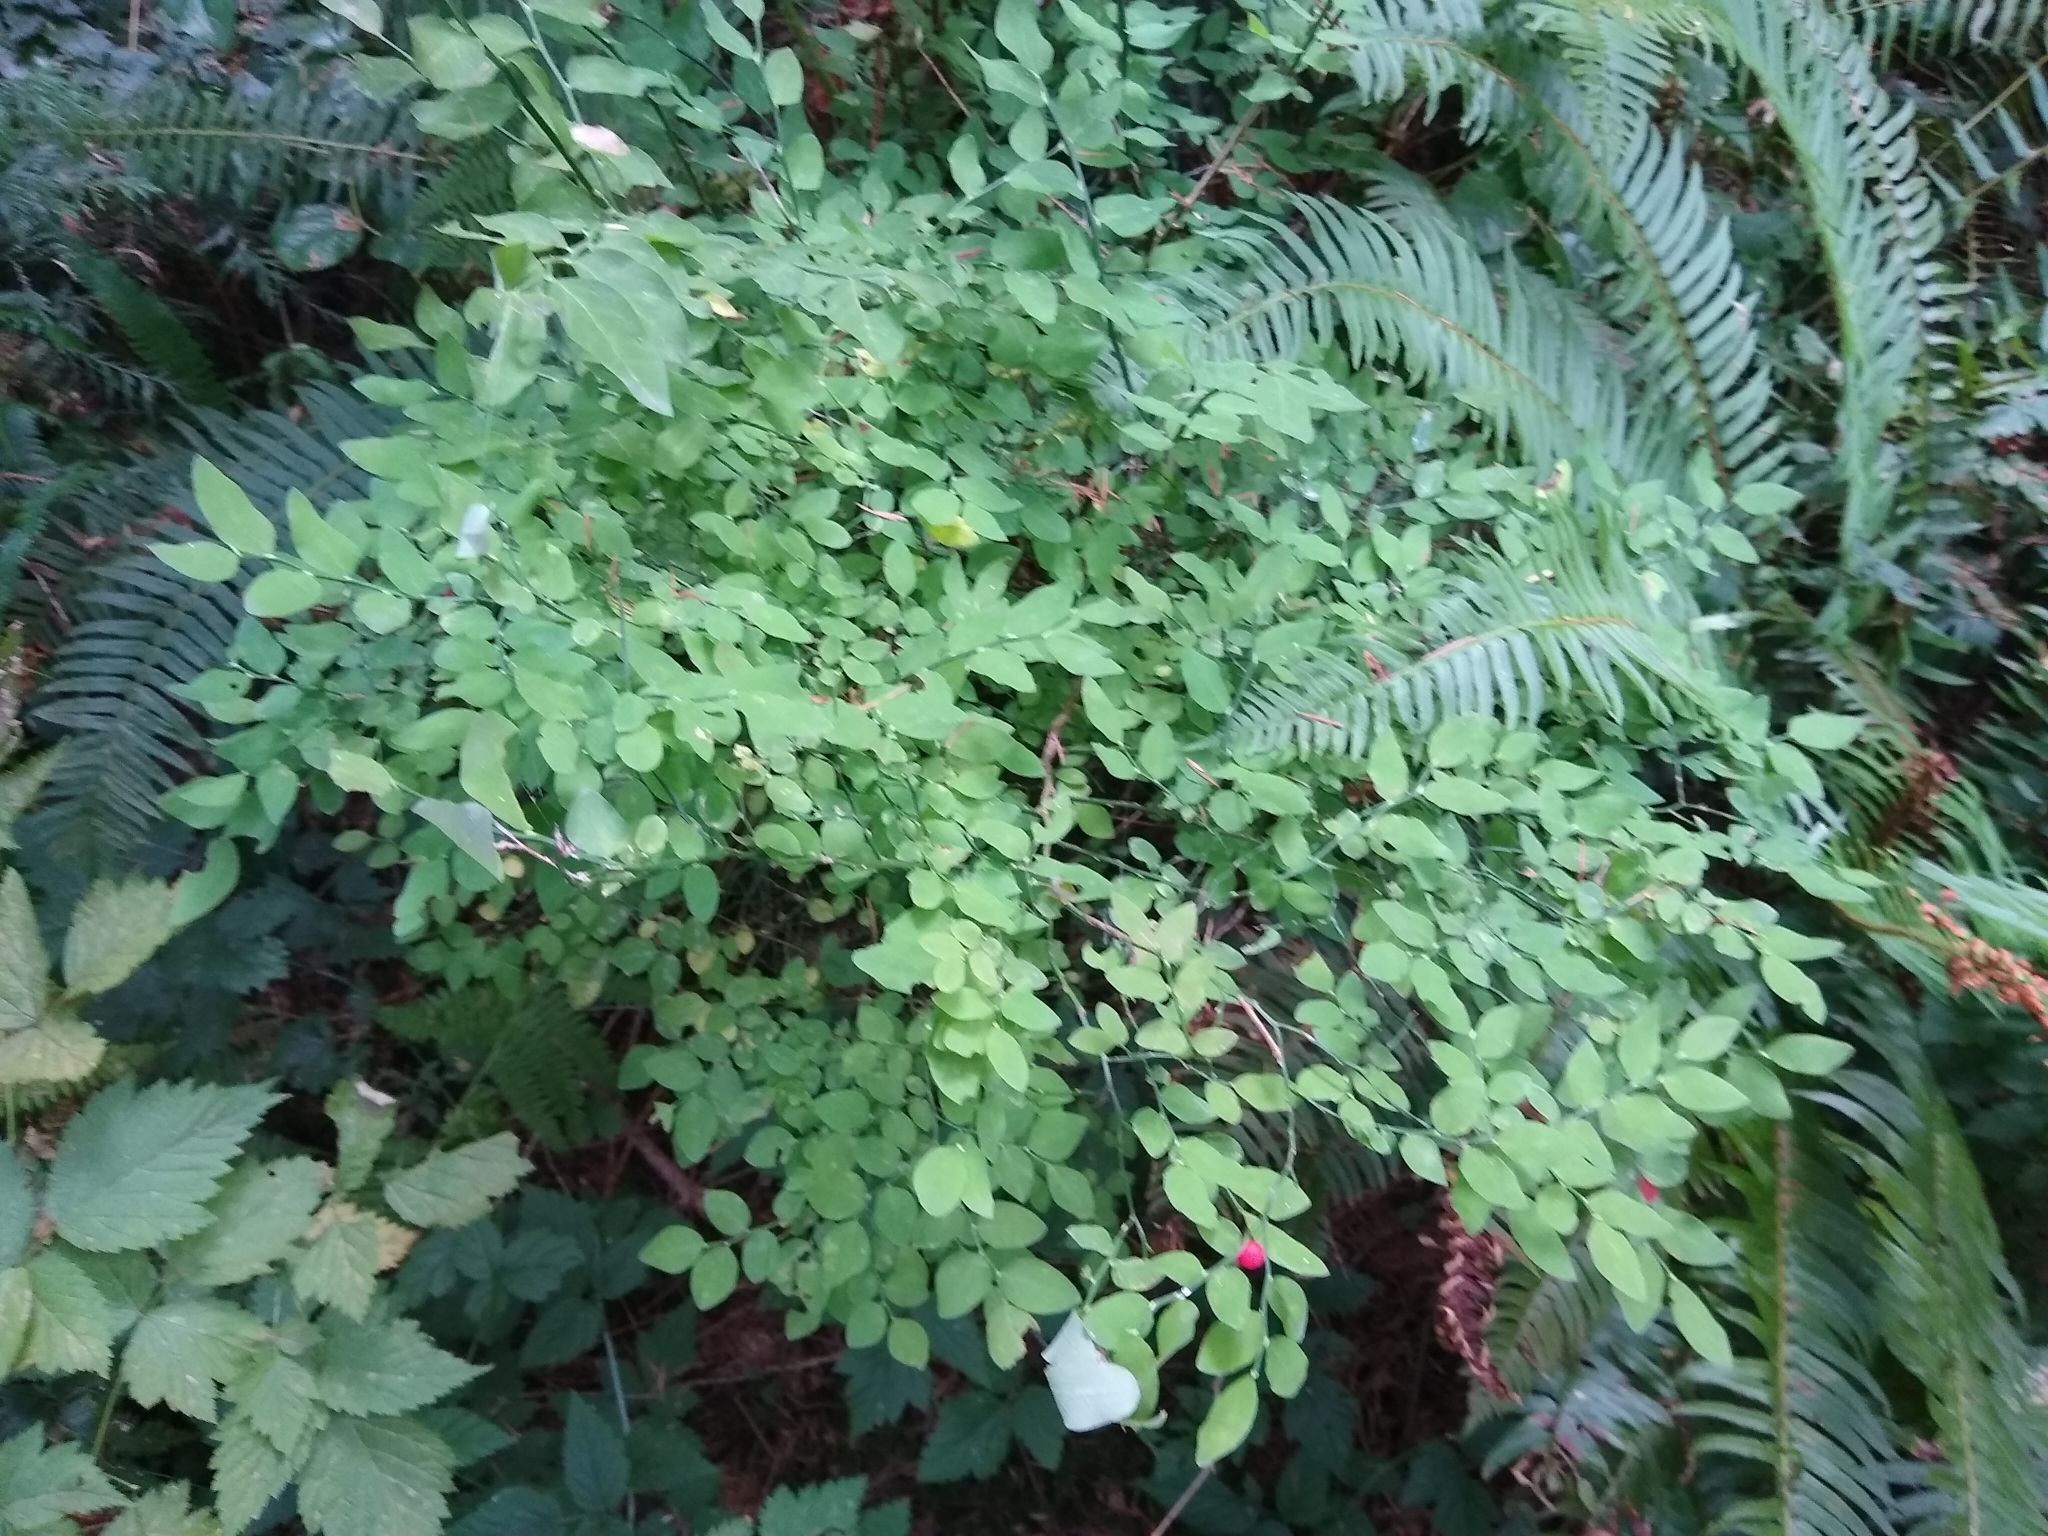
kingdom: Plantae
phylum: Tracheophyta
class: Magnoliopsida
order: Ericales
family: Ericaceae
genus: Vaccinium
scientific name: Vaccinium parvifolium
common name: Red-huckleberry
